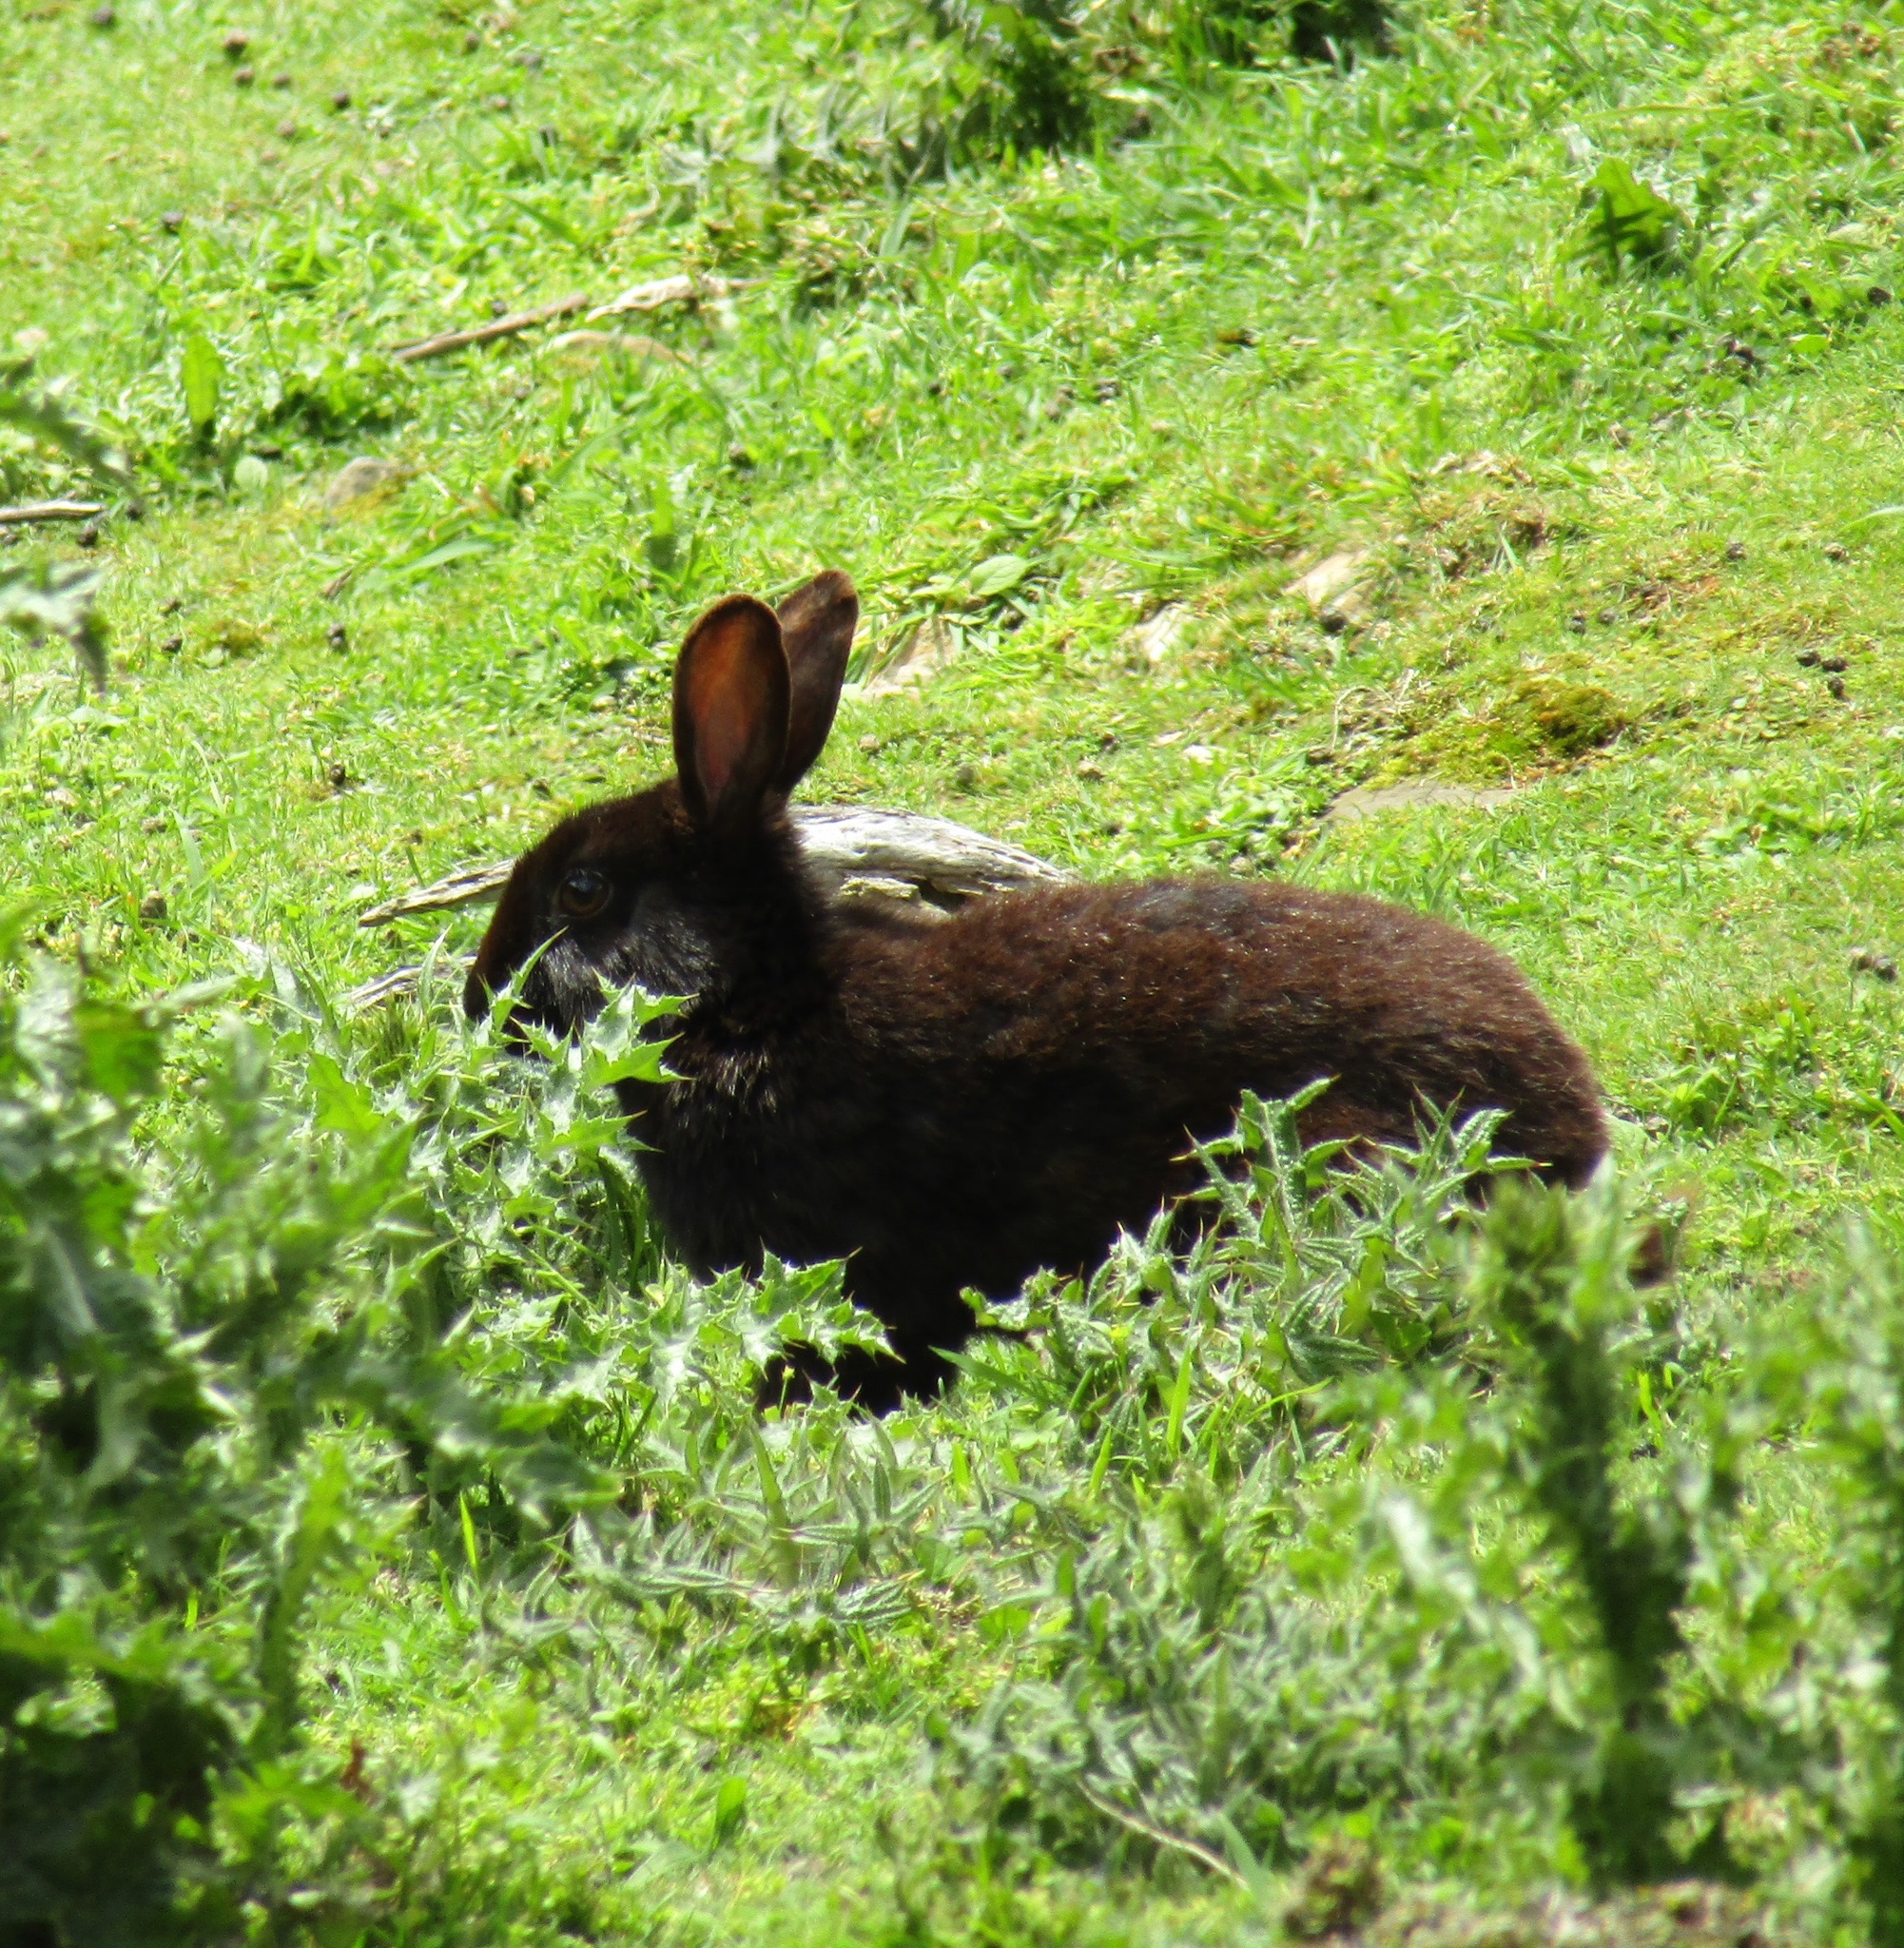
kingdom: Animalia
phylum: Chordata
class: Mammalia
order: Lagomorpha
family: Leporidae
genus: Oryctolagus
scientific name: Oryctolagus cuniculus
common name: European rabbit
